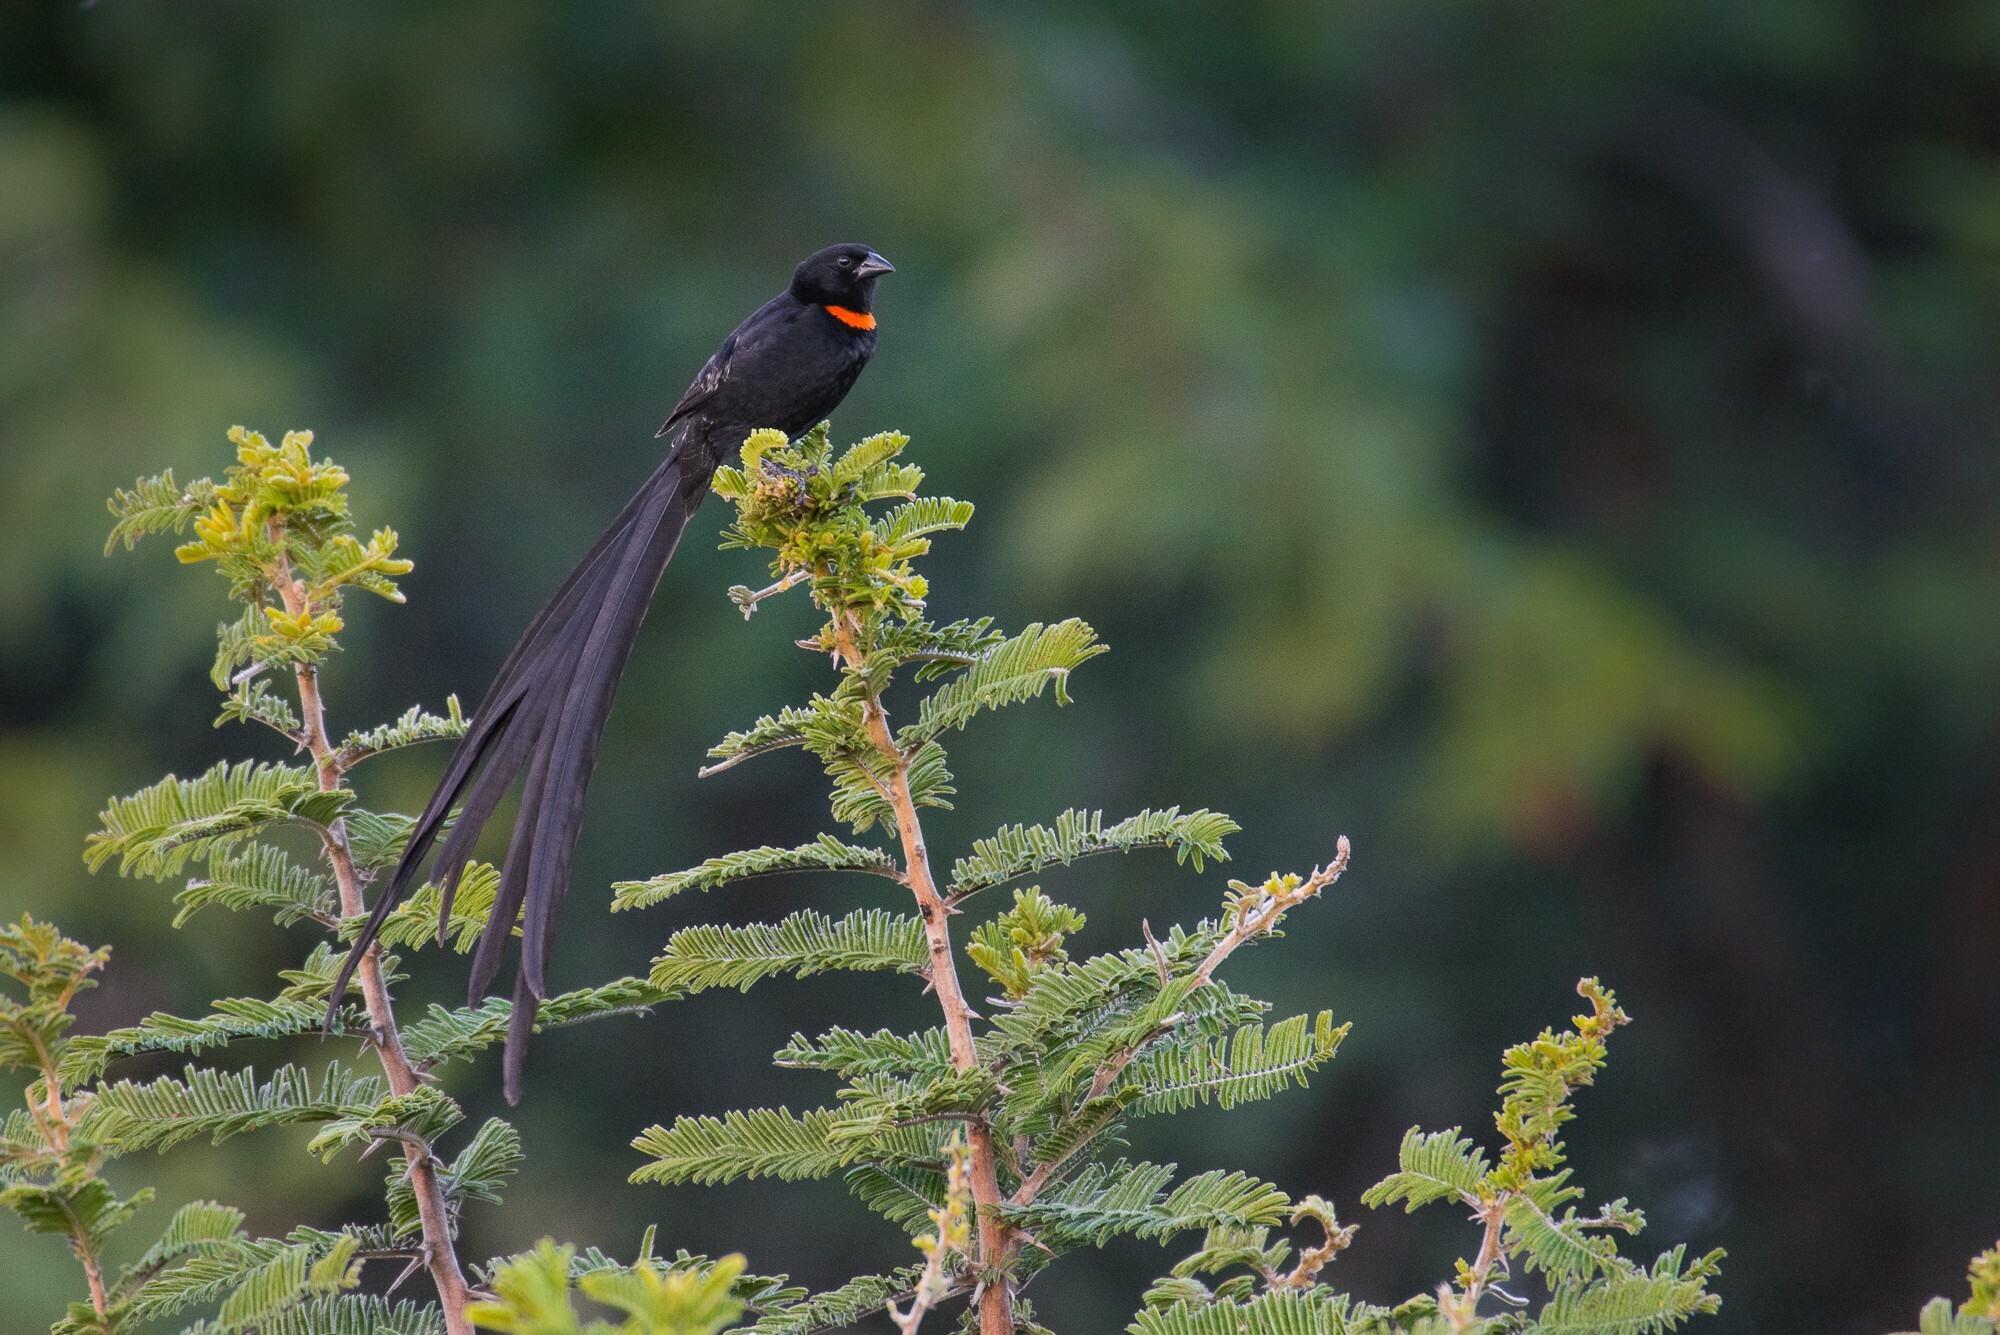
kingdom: Animalia
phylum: Chordata
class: Aves
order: Passeriformes
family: Ploceidae
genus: Euplectes
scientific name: Euplectes ardens
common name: Red-collared widowbird
